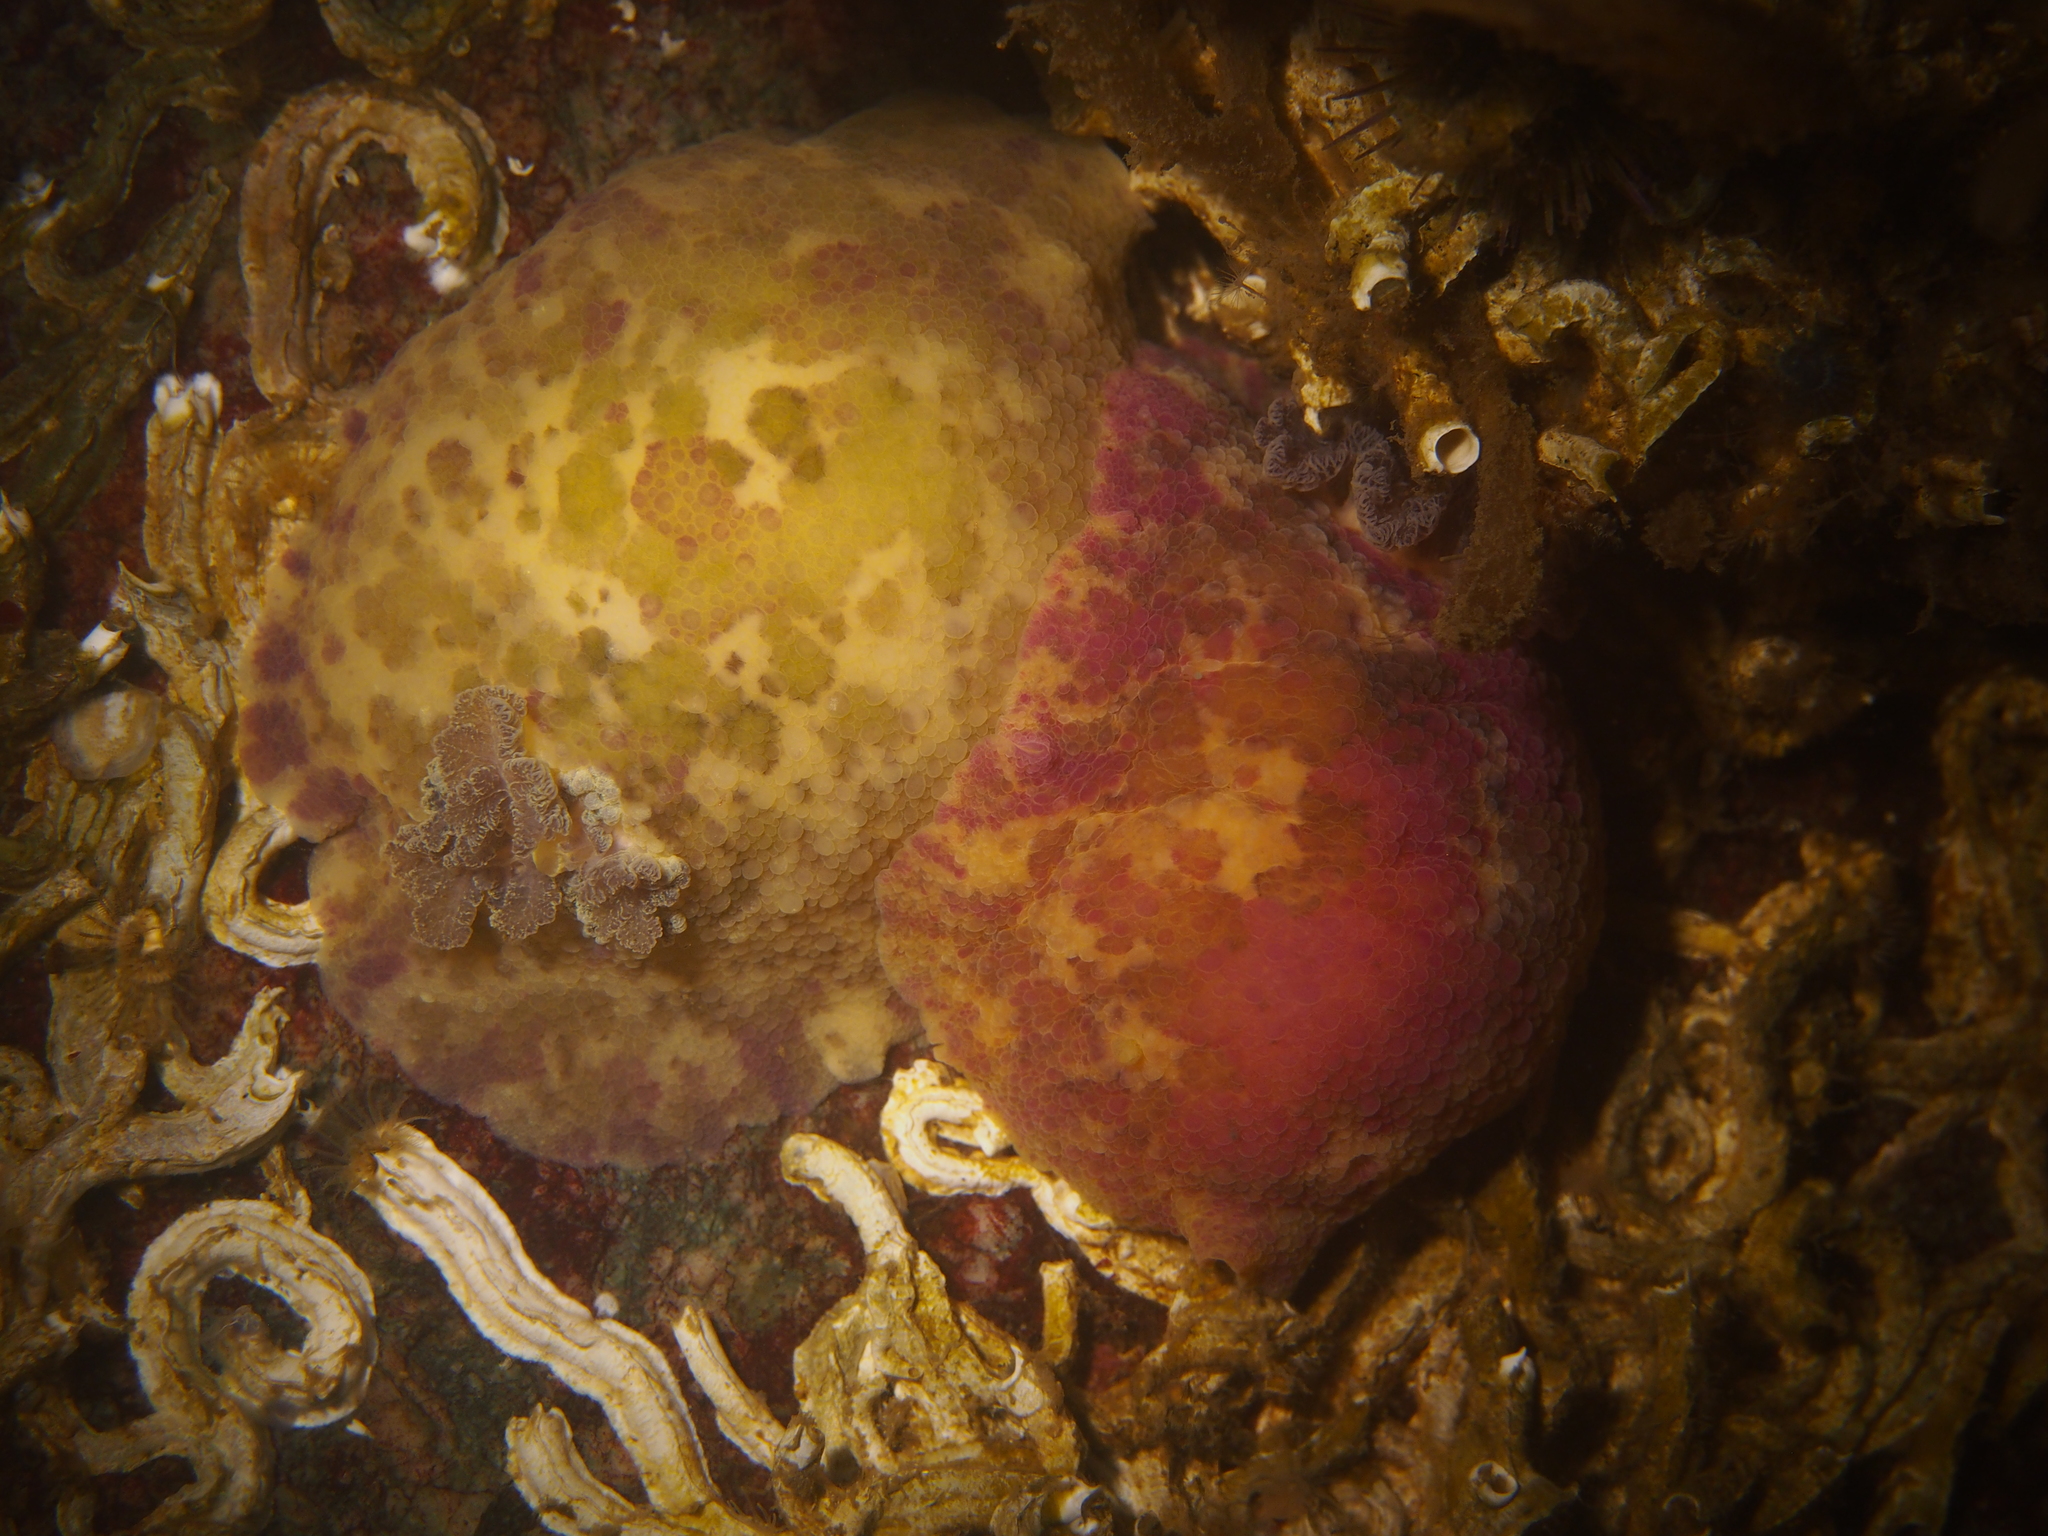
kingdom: Animalia
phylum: Mollusca
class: Gastropoda
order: Nudibranchia
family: Dorididae
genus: Doris
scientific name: Doris pseudoargus
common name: Sea lemon
